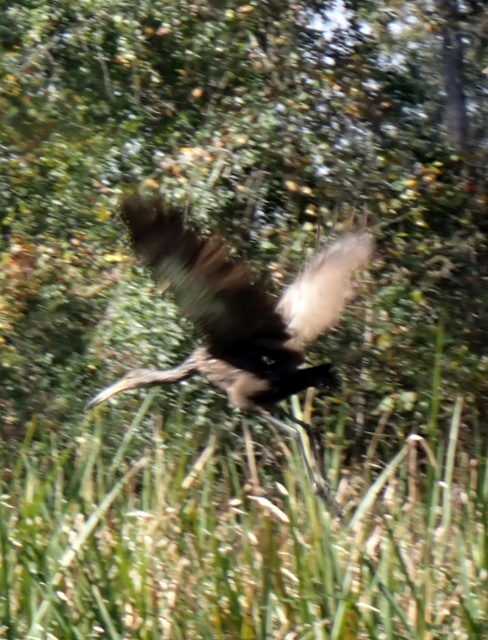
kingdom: Animalia
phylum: Chordata
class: Aves
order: Gruiformes
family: Aramidae
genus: Aramus
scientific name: Aramus guarauna
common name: Limpkin
